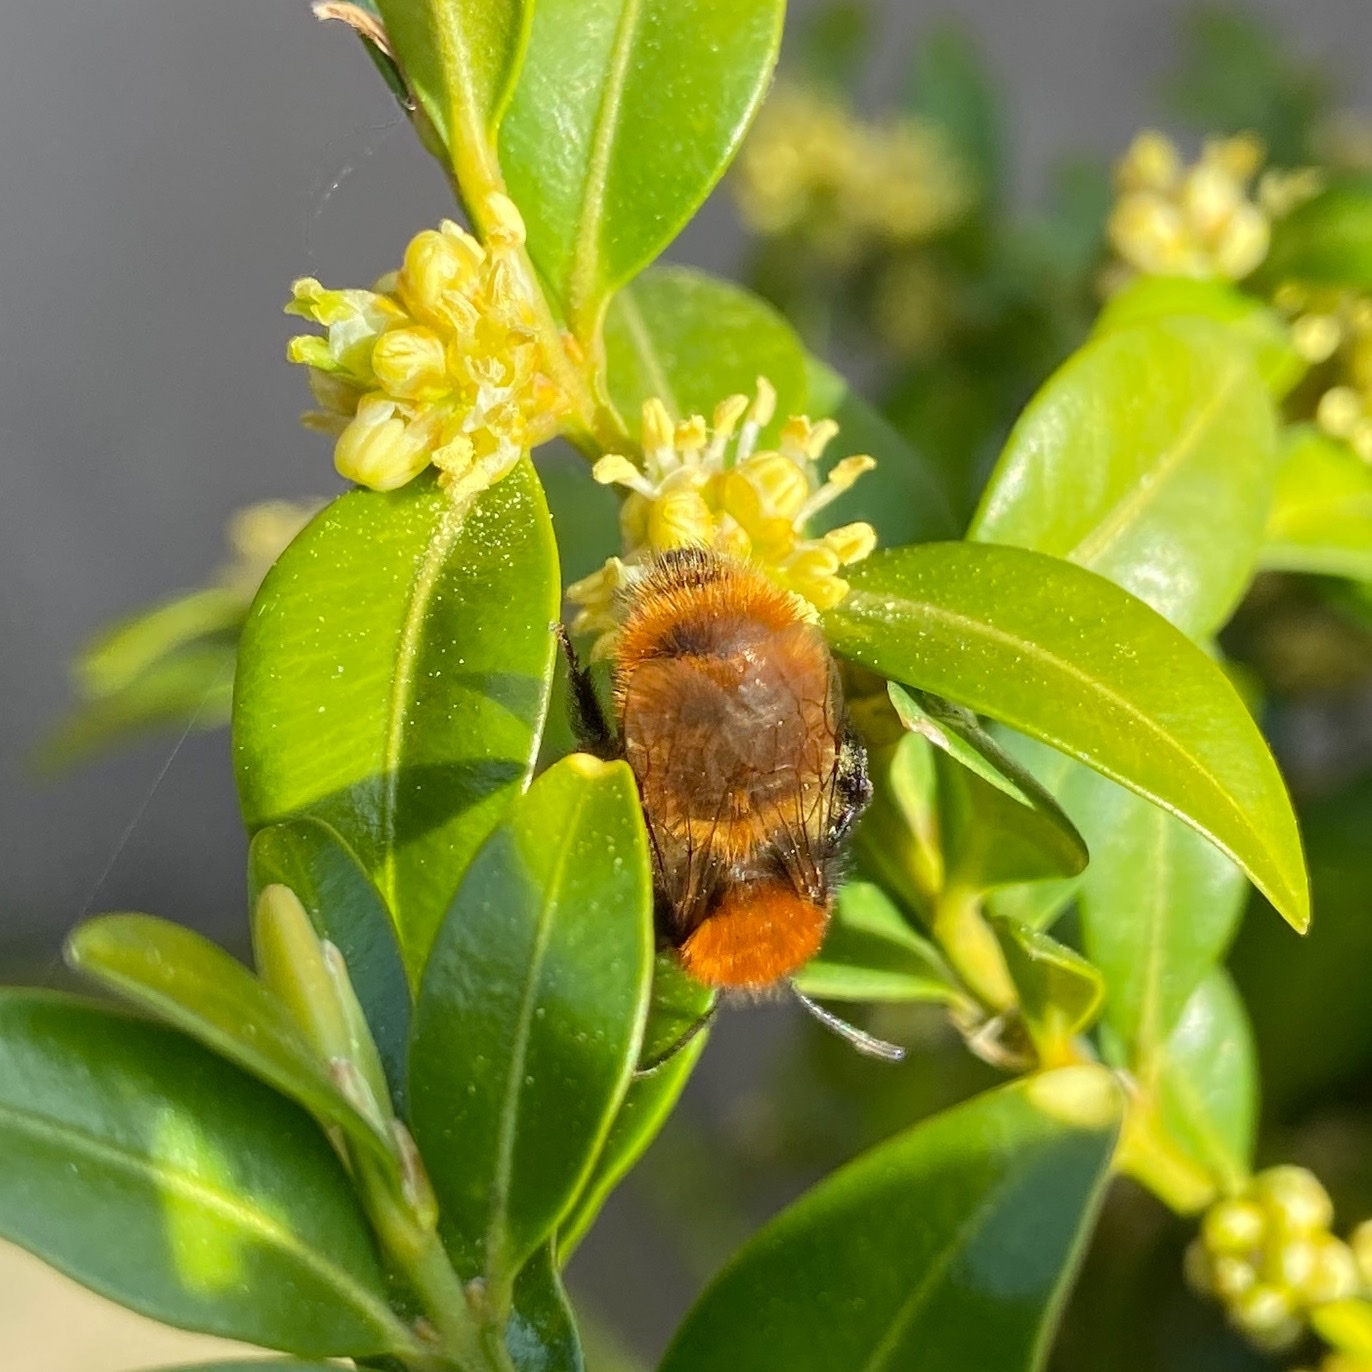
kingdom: Animalia
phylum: Arthropoda
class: Insecta
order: Hymenoptera
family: Andrenidae
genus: Andrena
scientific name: Andrena fulva
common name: Tawny mining bee
